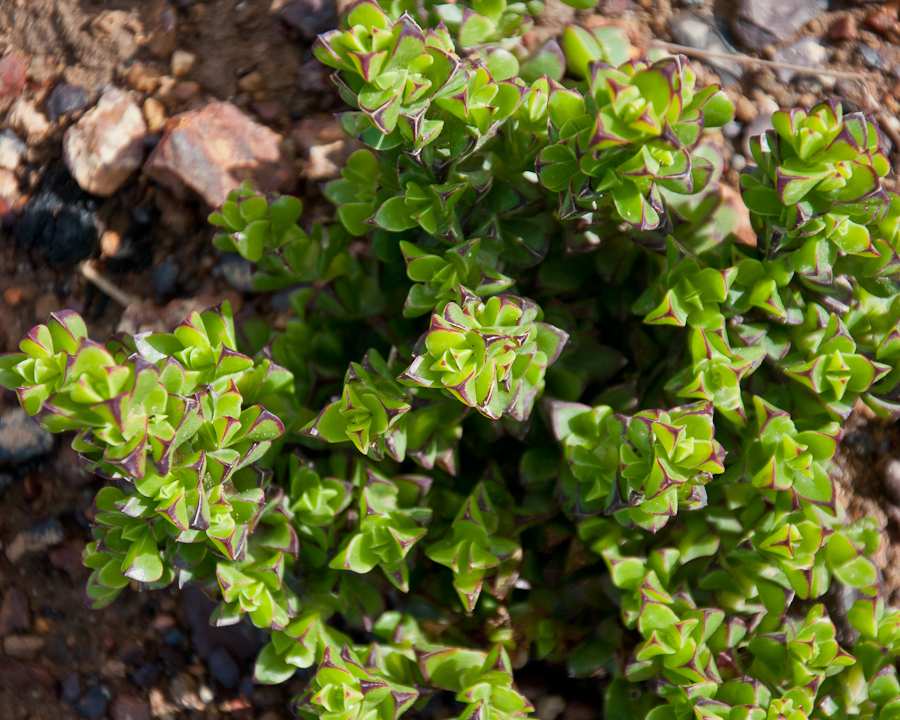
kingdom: Plantae
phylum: Tracheophyta
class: Magnoliopsida
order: Caryophyllales
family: Aizoaceae
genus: Erepsia
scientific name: Erepsia inclaudens
